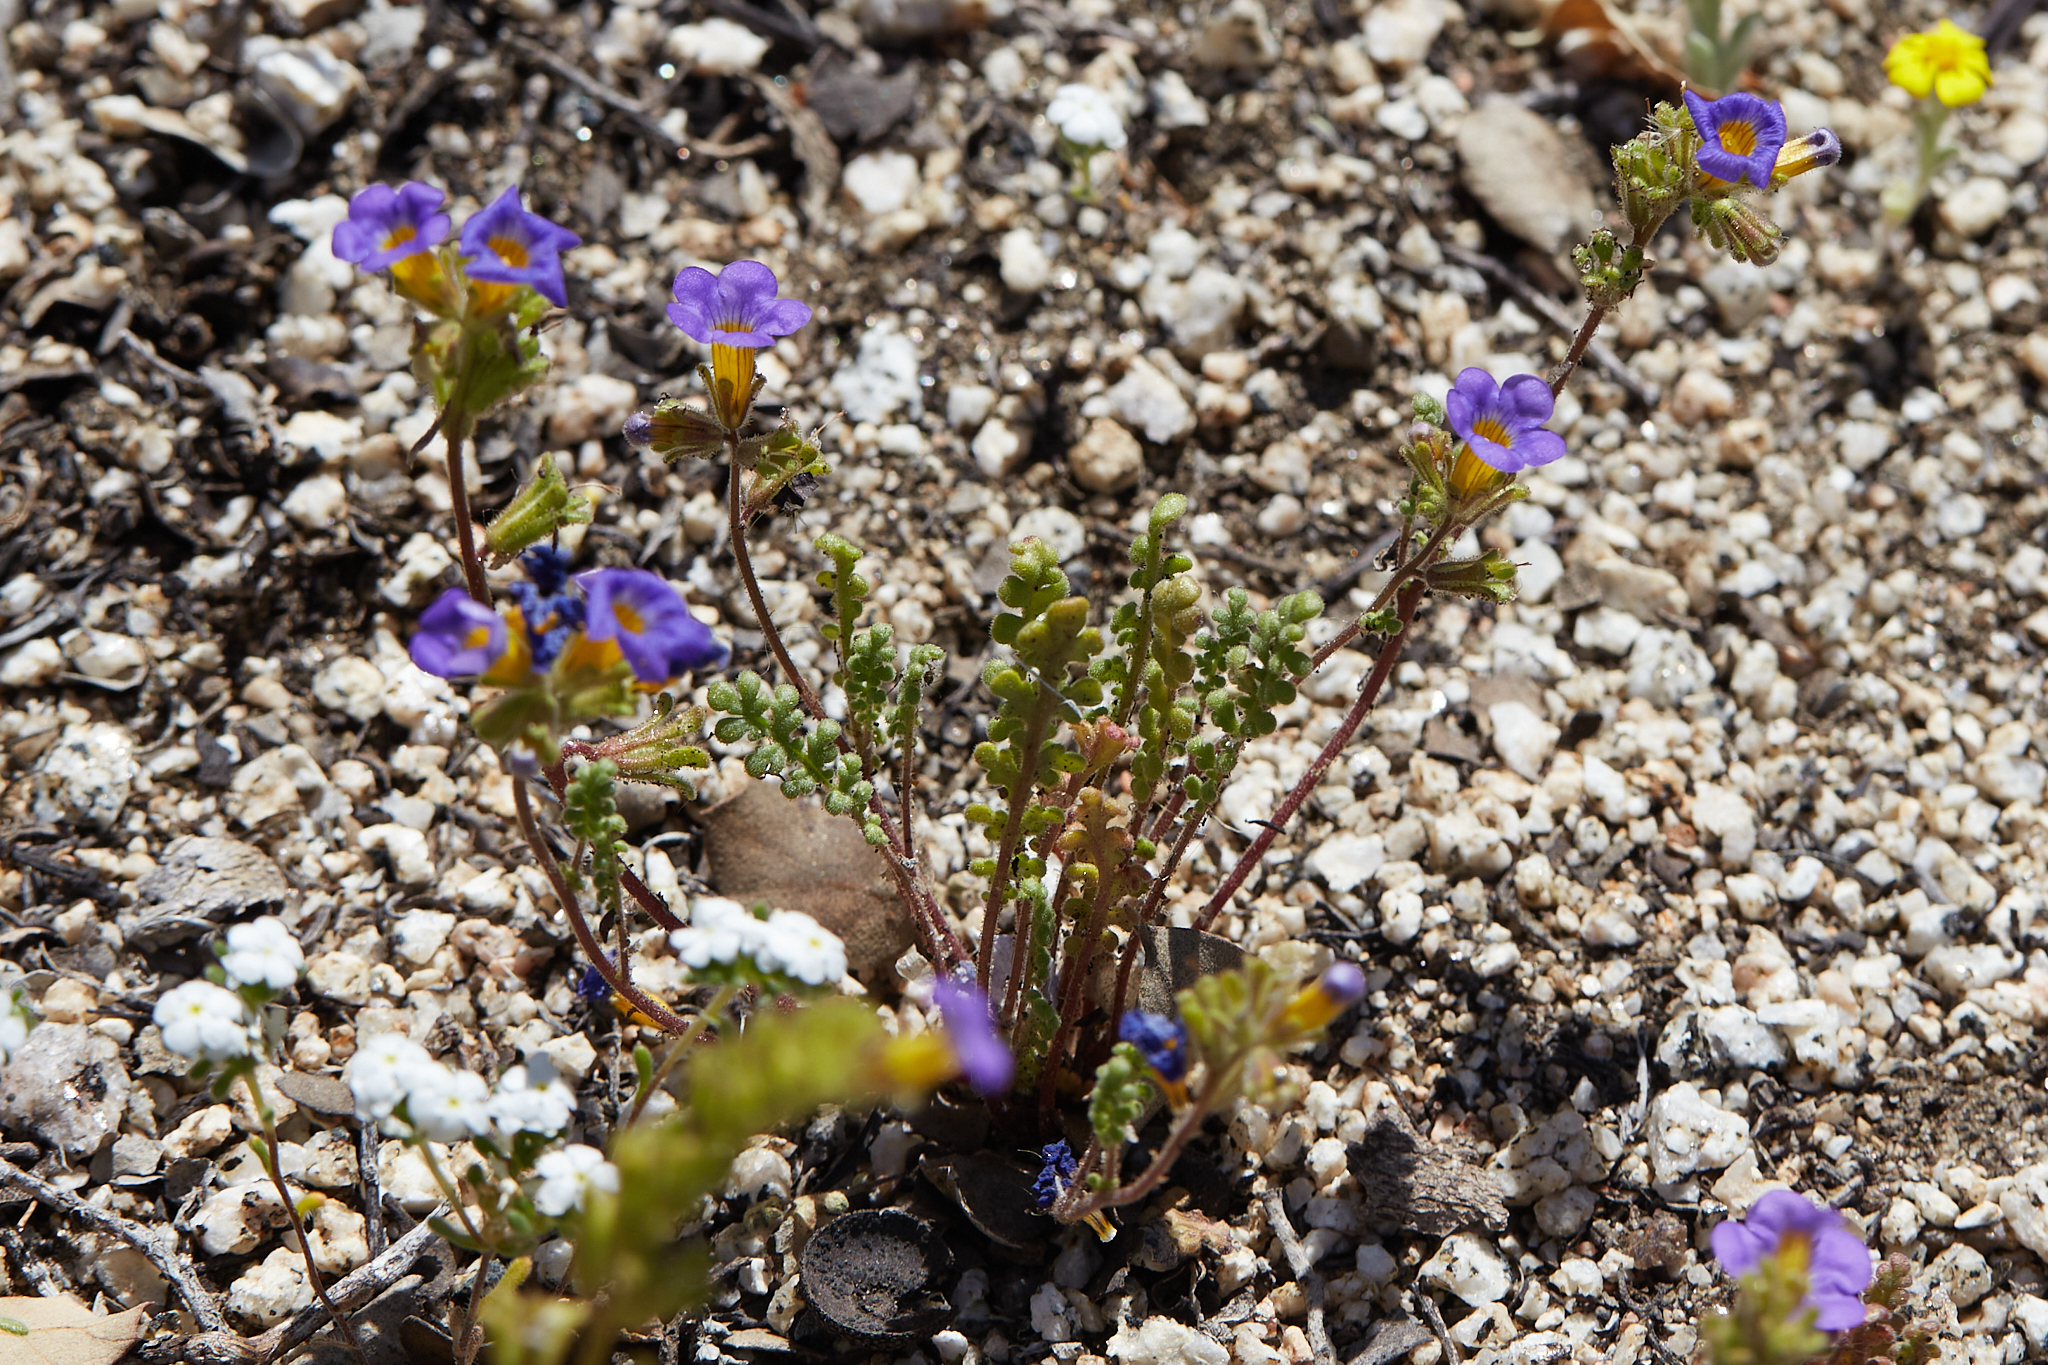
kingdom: Plantae
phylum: Tracheophyta
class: Magnoliopsida
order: Boraginales
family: Hydrophyllaceae
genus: Phacelia
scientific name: Phacelia fremontii
